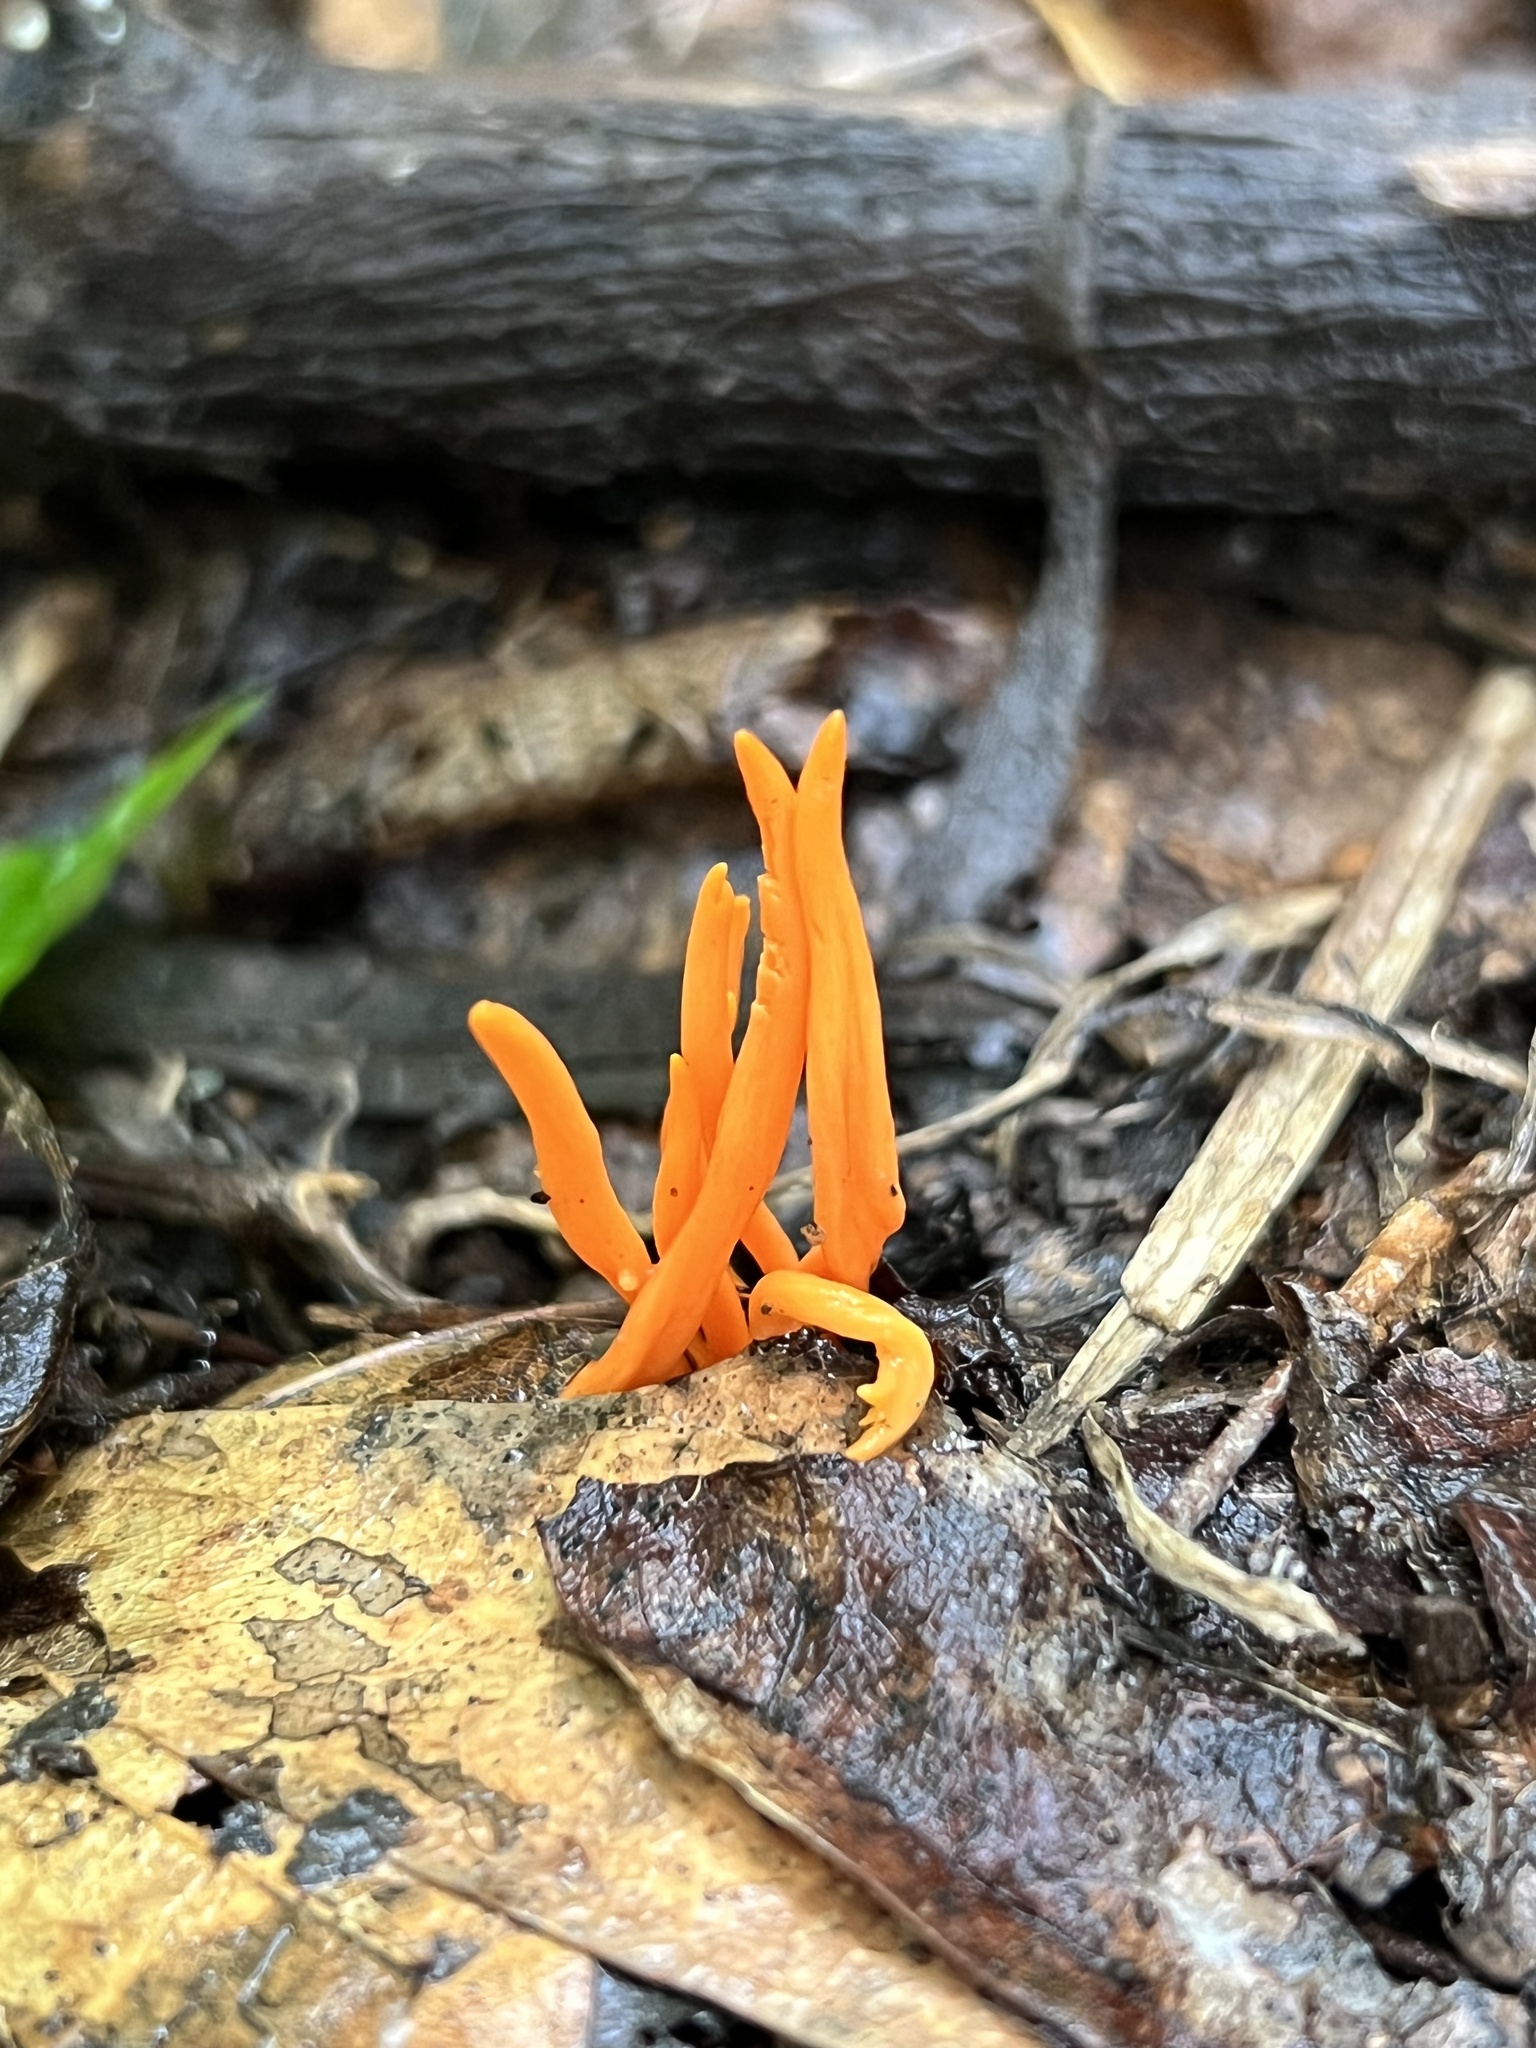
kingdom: Fungi
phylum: Basidiomycota
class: Agaricomycetes
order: Agaricales
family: Clavariaceae
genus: Clavulinopsis
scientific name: Clavulinopsis aurantiocinnabarina
